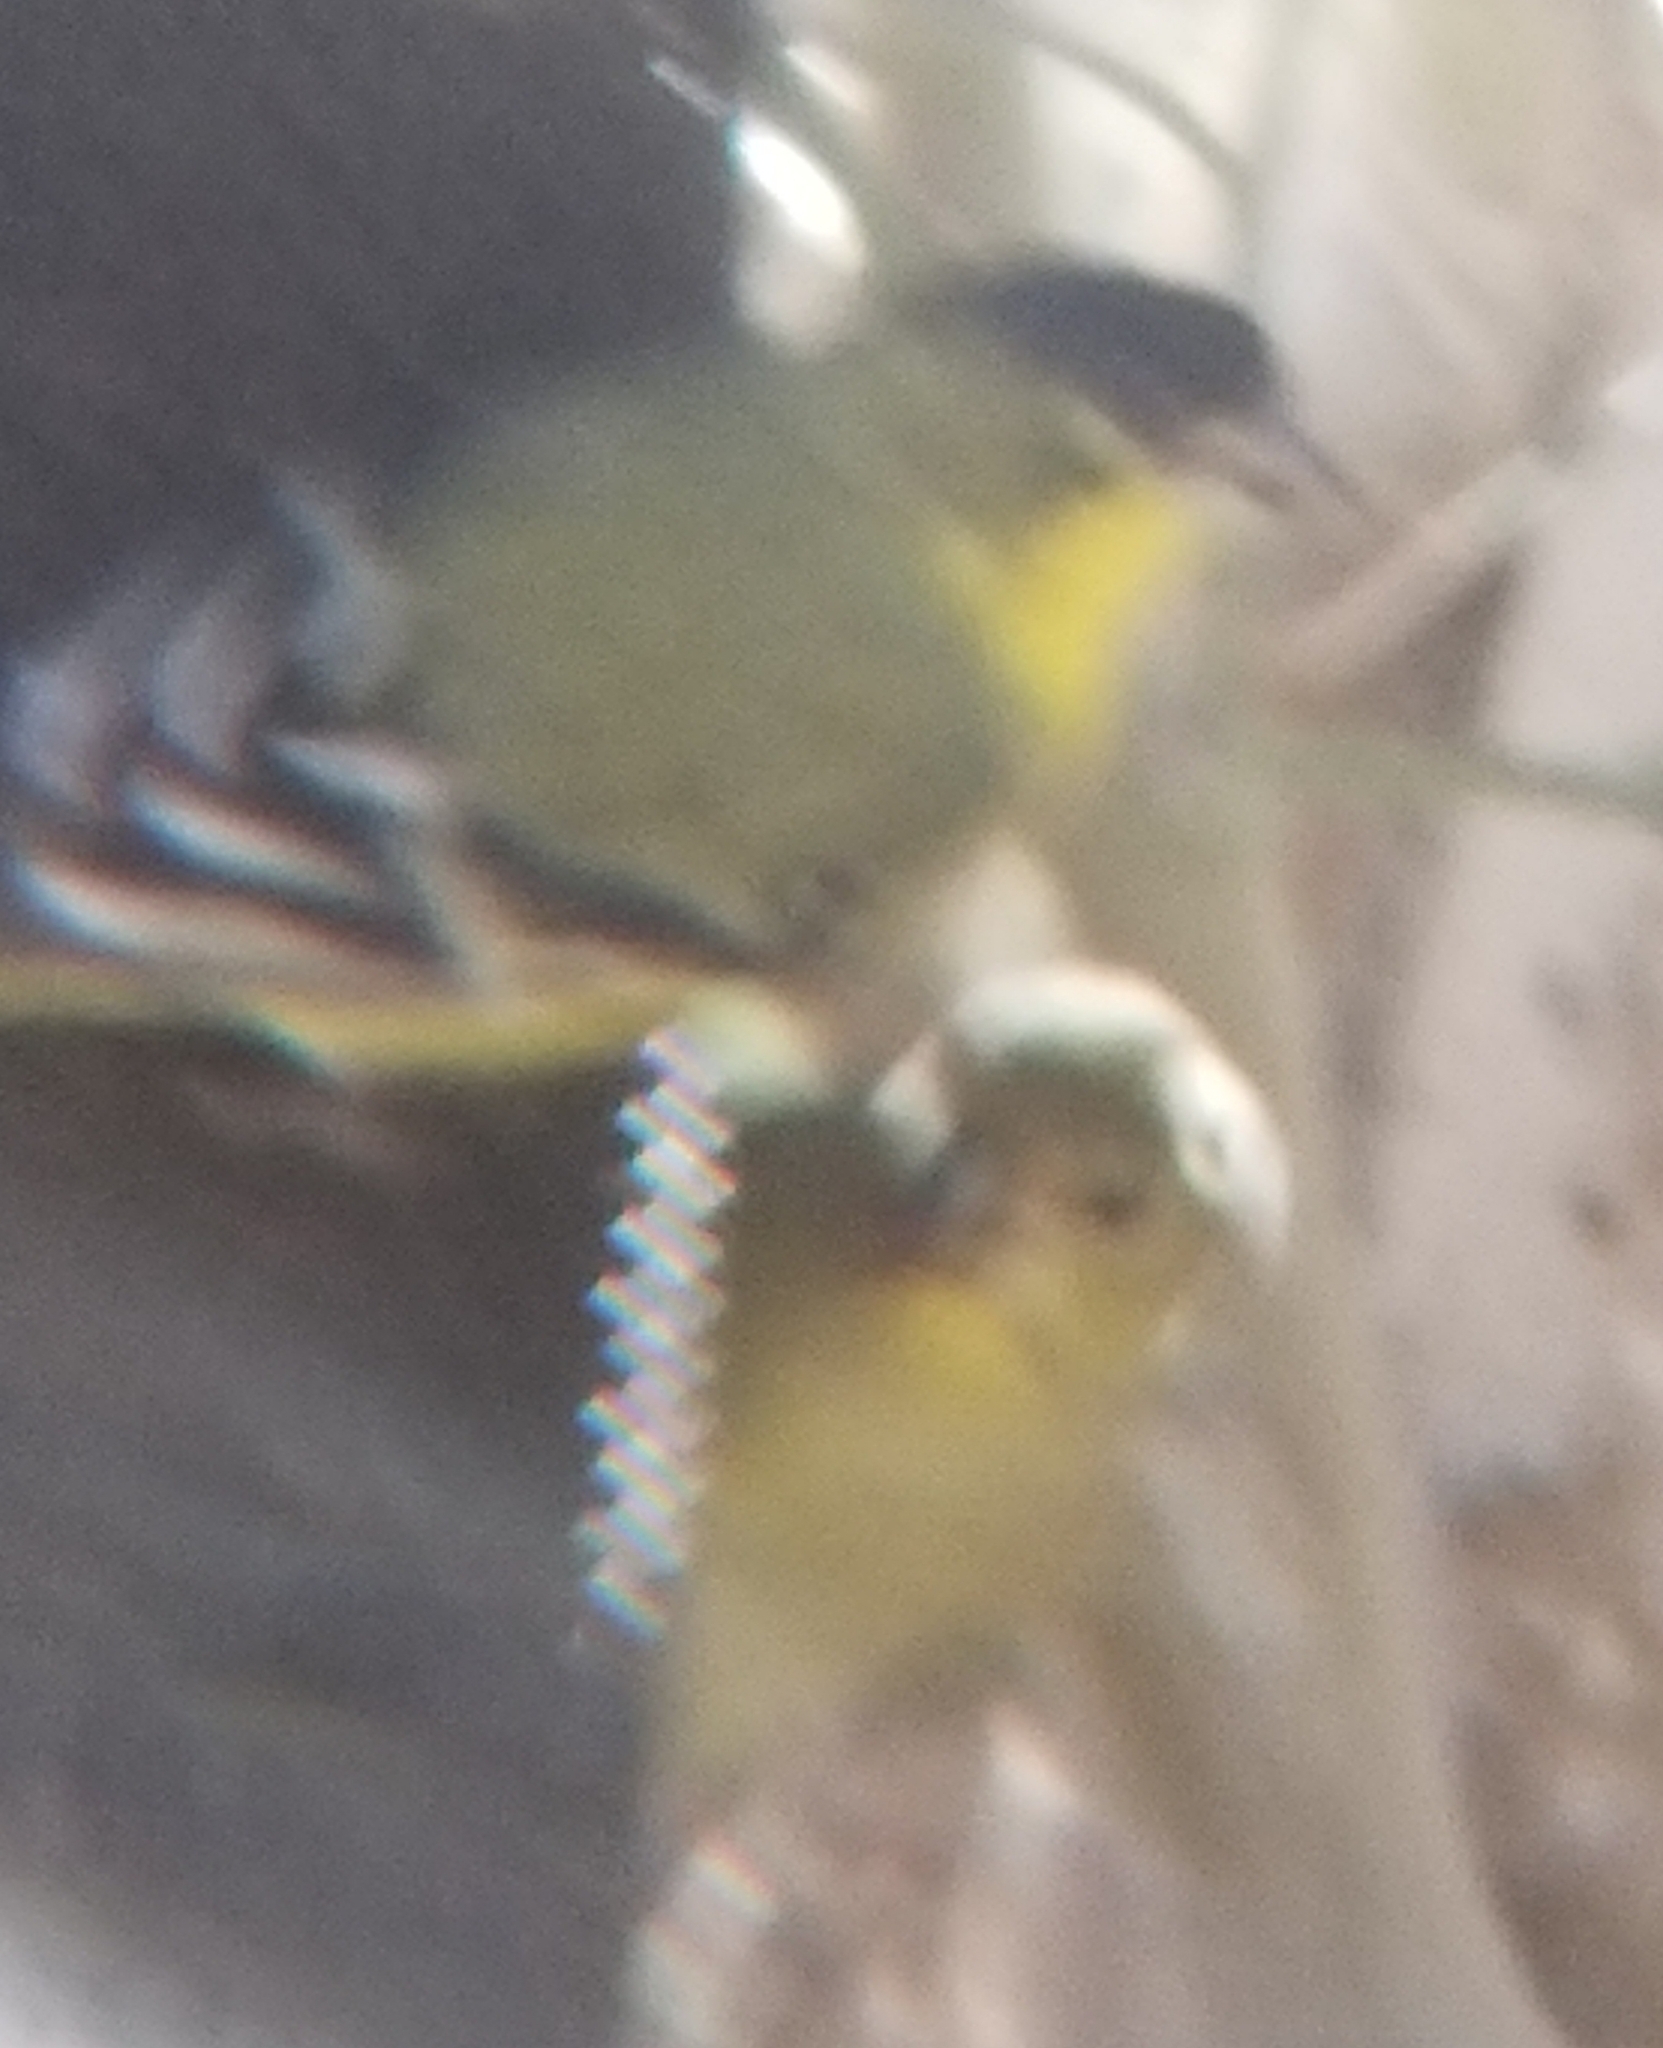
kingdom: Animalia
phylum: Chordata
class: Aves
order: Passeriformes
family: Fringillidae
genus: Spinus
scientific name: Spinus psaltria
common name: Lesser goldfinch
